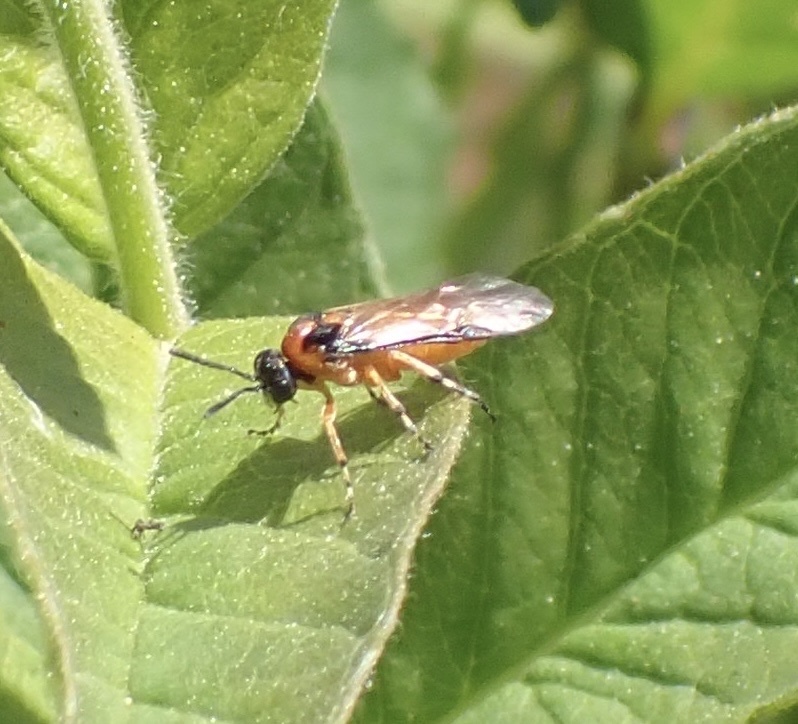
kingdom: Animalia
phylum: Arthropoda
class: Insecta
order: Hymenoptera
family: Tenthredinidae
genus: Athalia
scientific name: Athalia rosae
